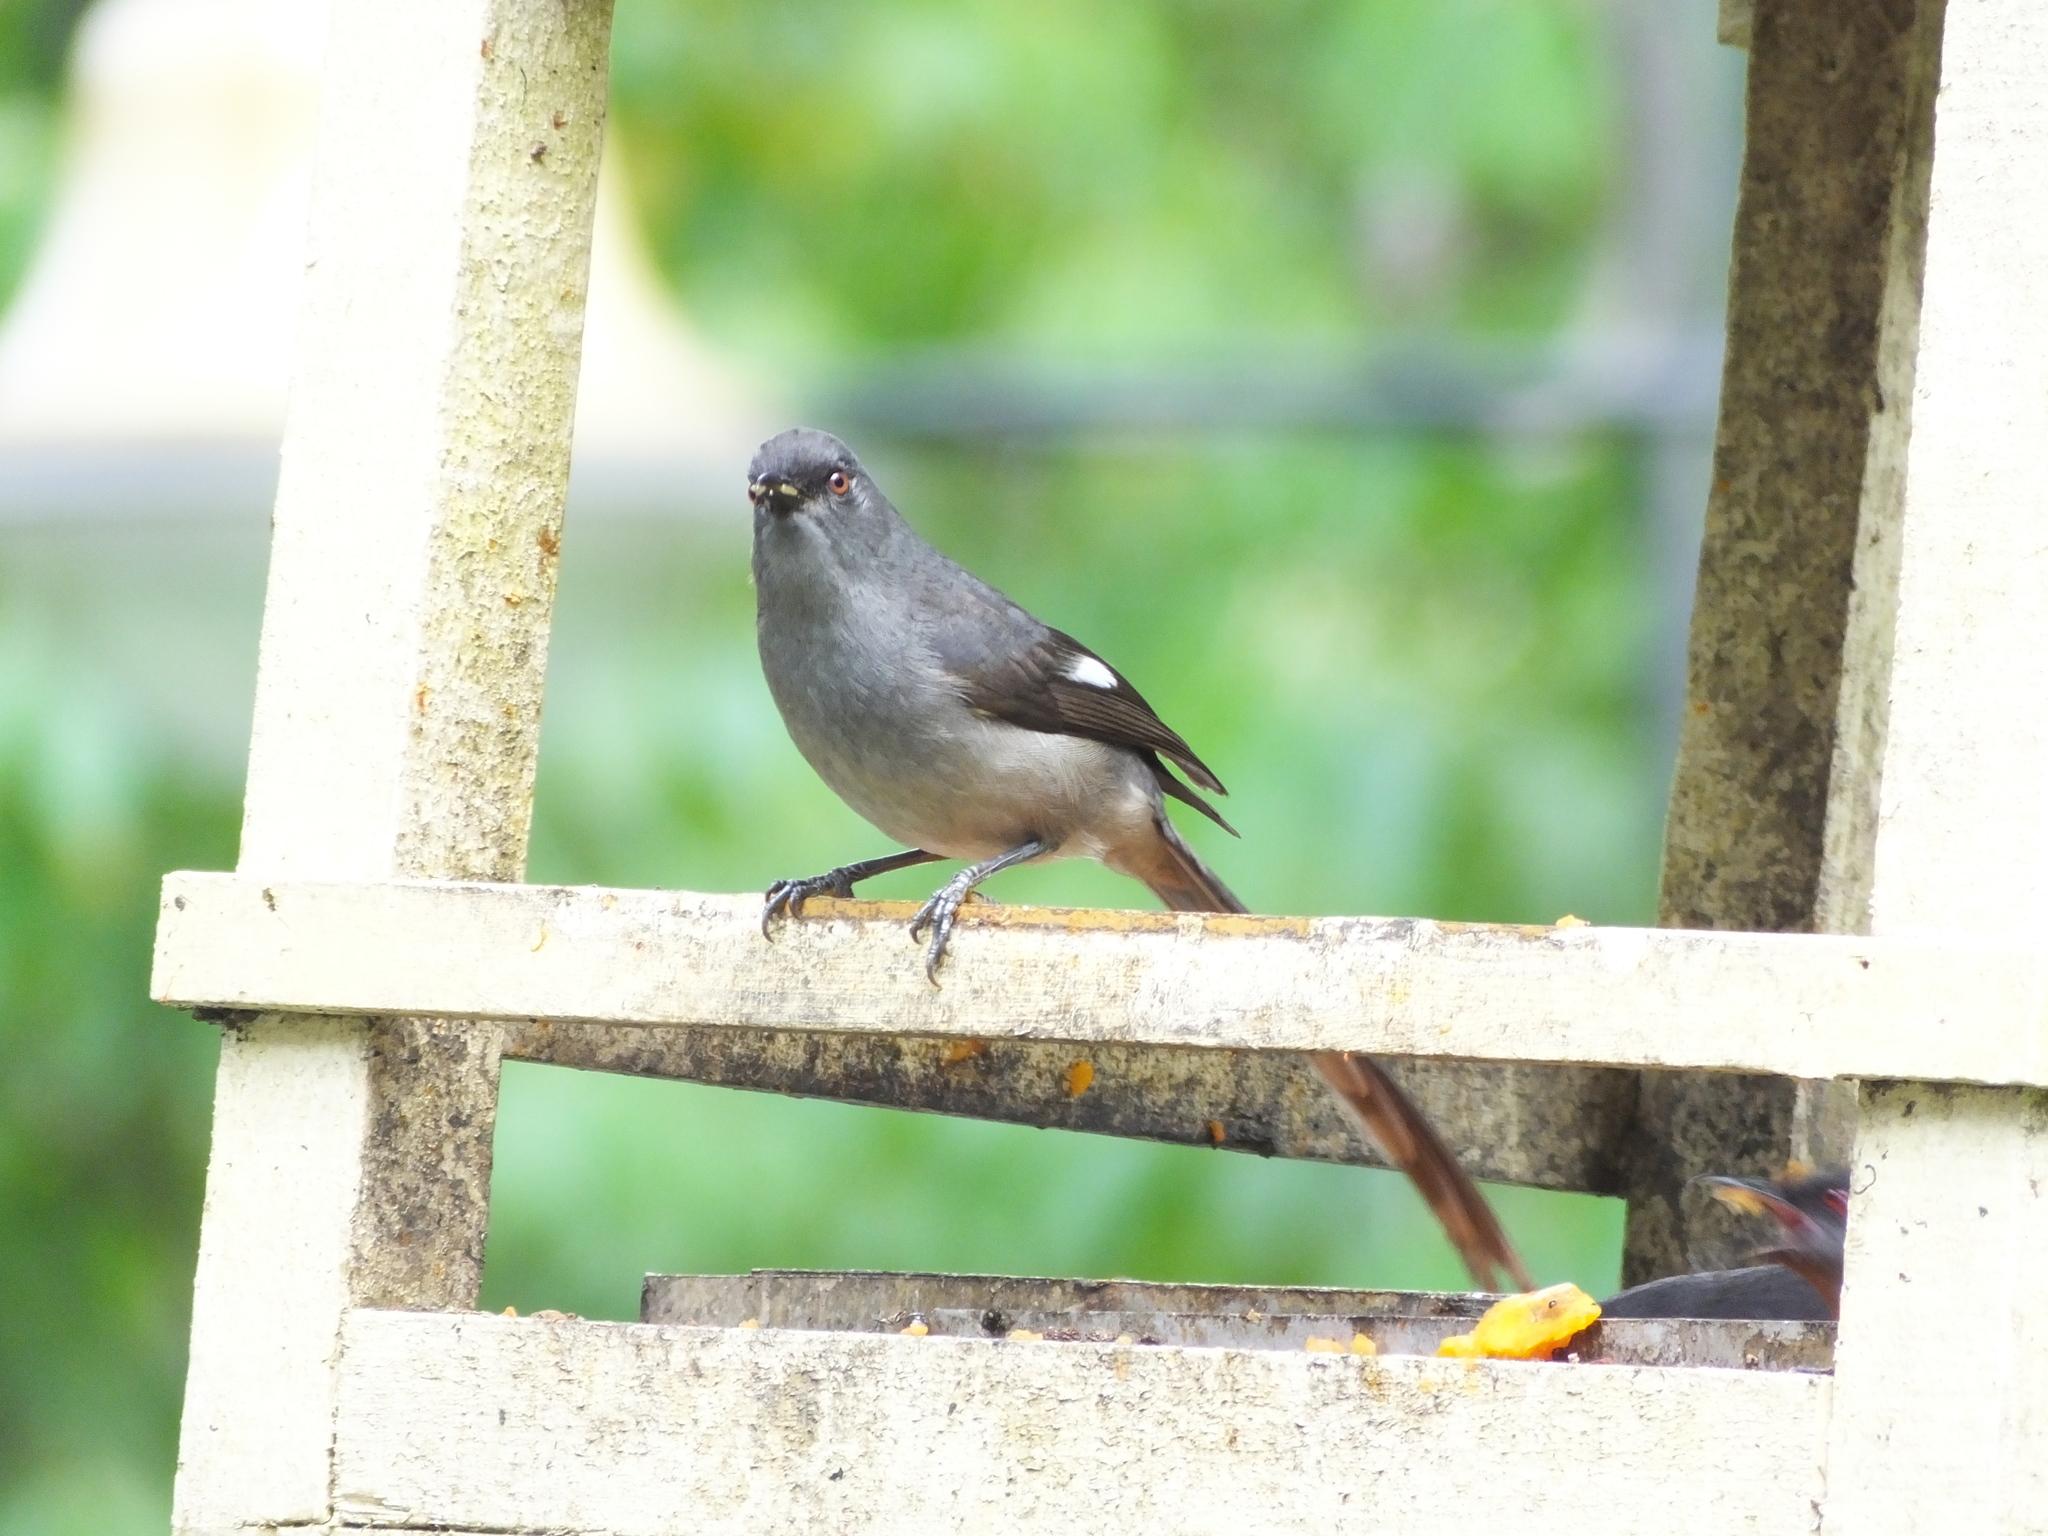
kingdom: Animalia
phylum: Chordata
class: Aves
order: Passeriformes
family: Leiothrichidae
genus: Heterophasia
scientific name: Heterophasia picaoides
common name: Long-tailed sibia
